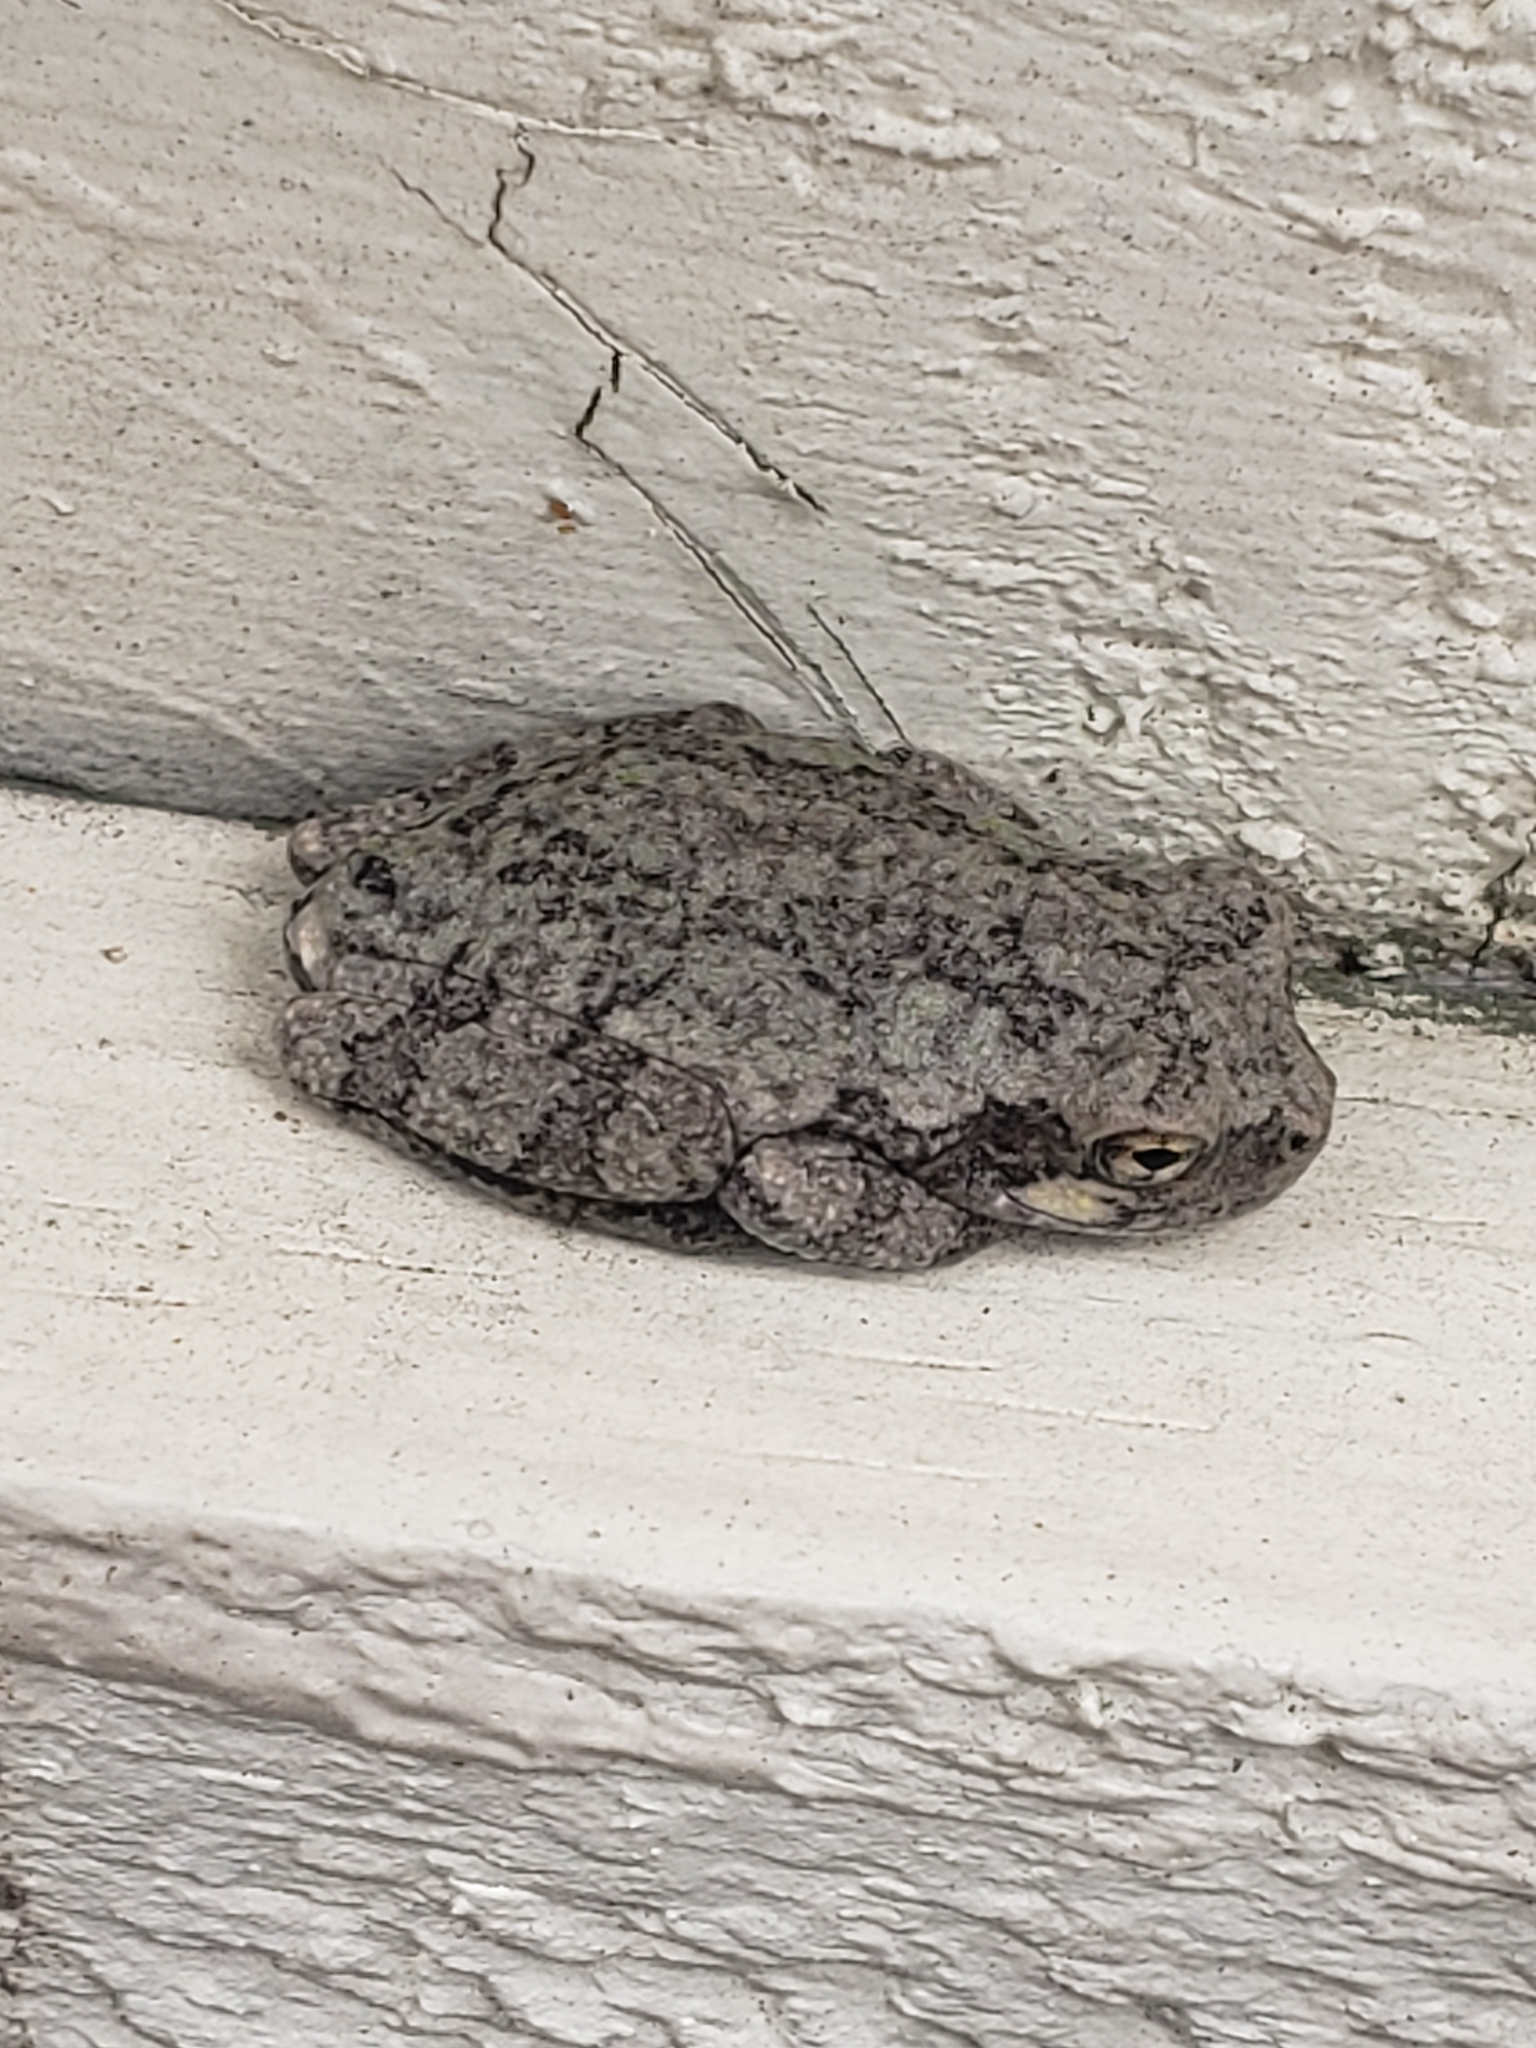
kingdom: Animalia
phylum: Chordata
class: Amphibia
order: Anura
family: Hylidae
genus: Hyla
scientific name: Hyla
